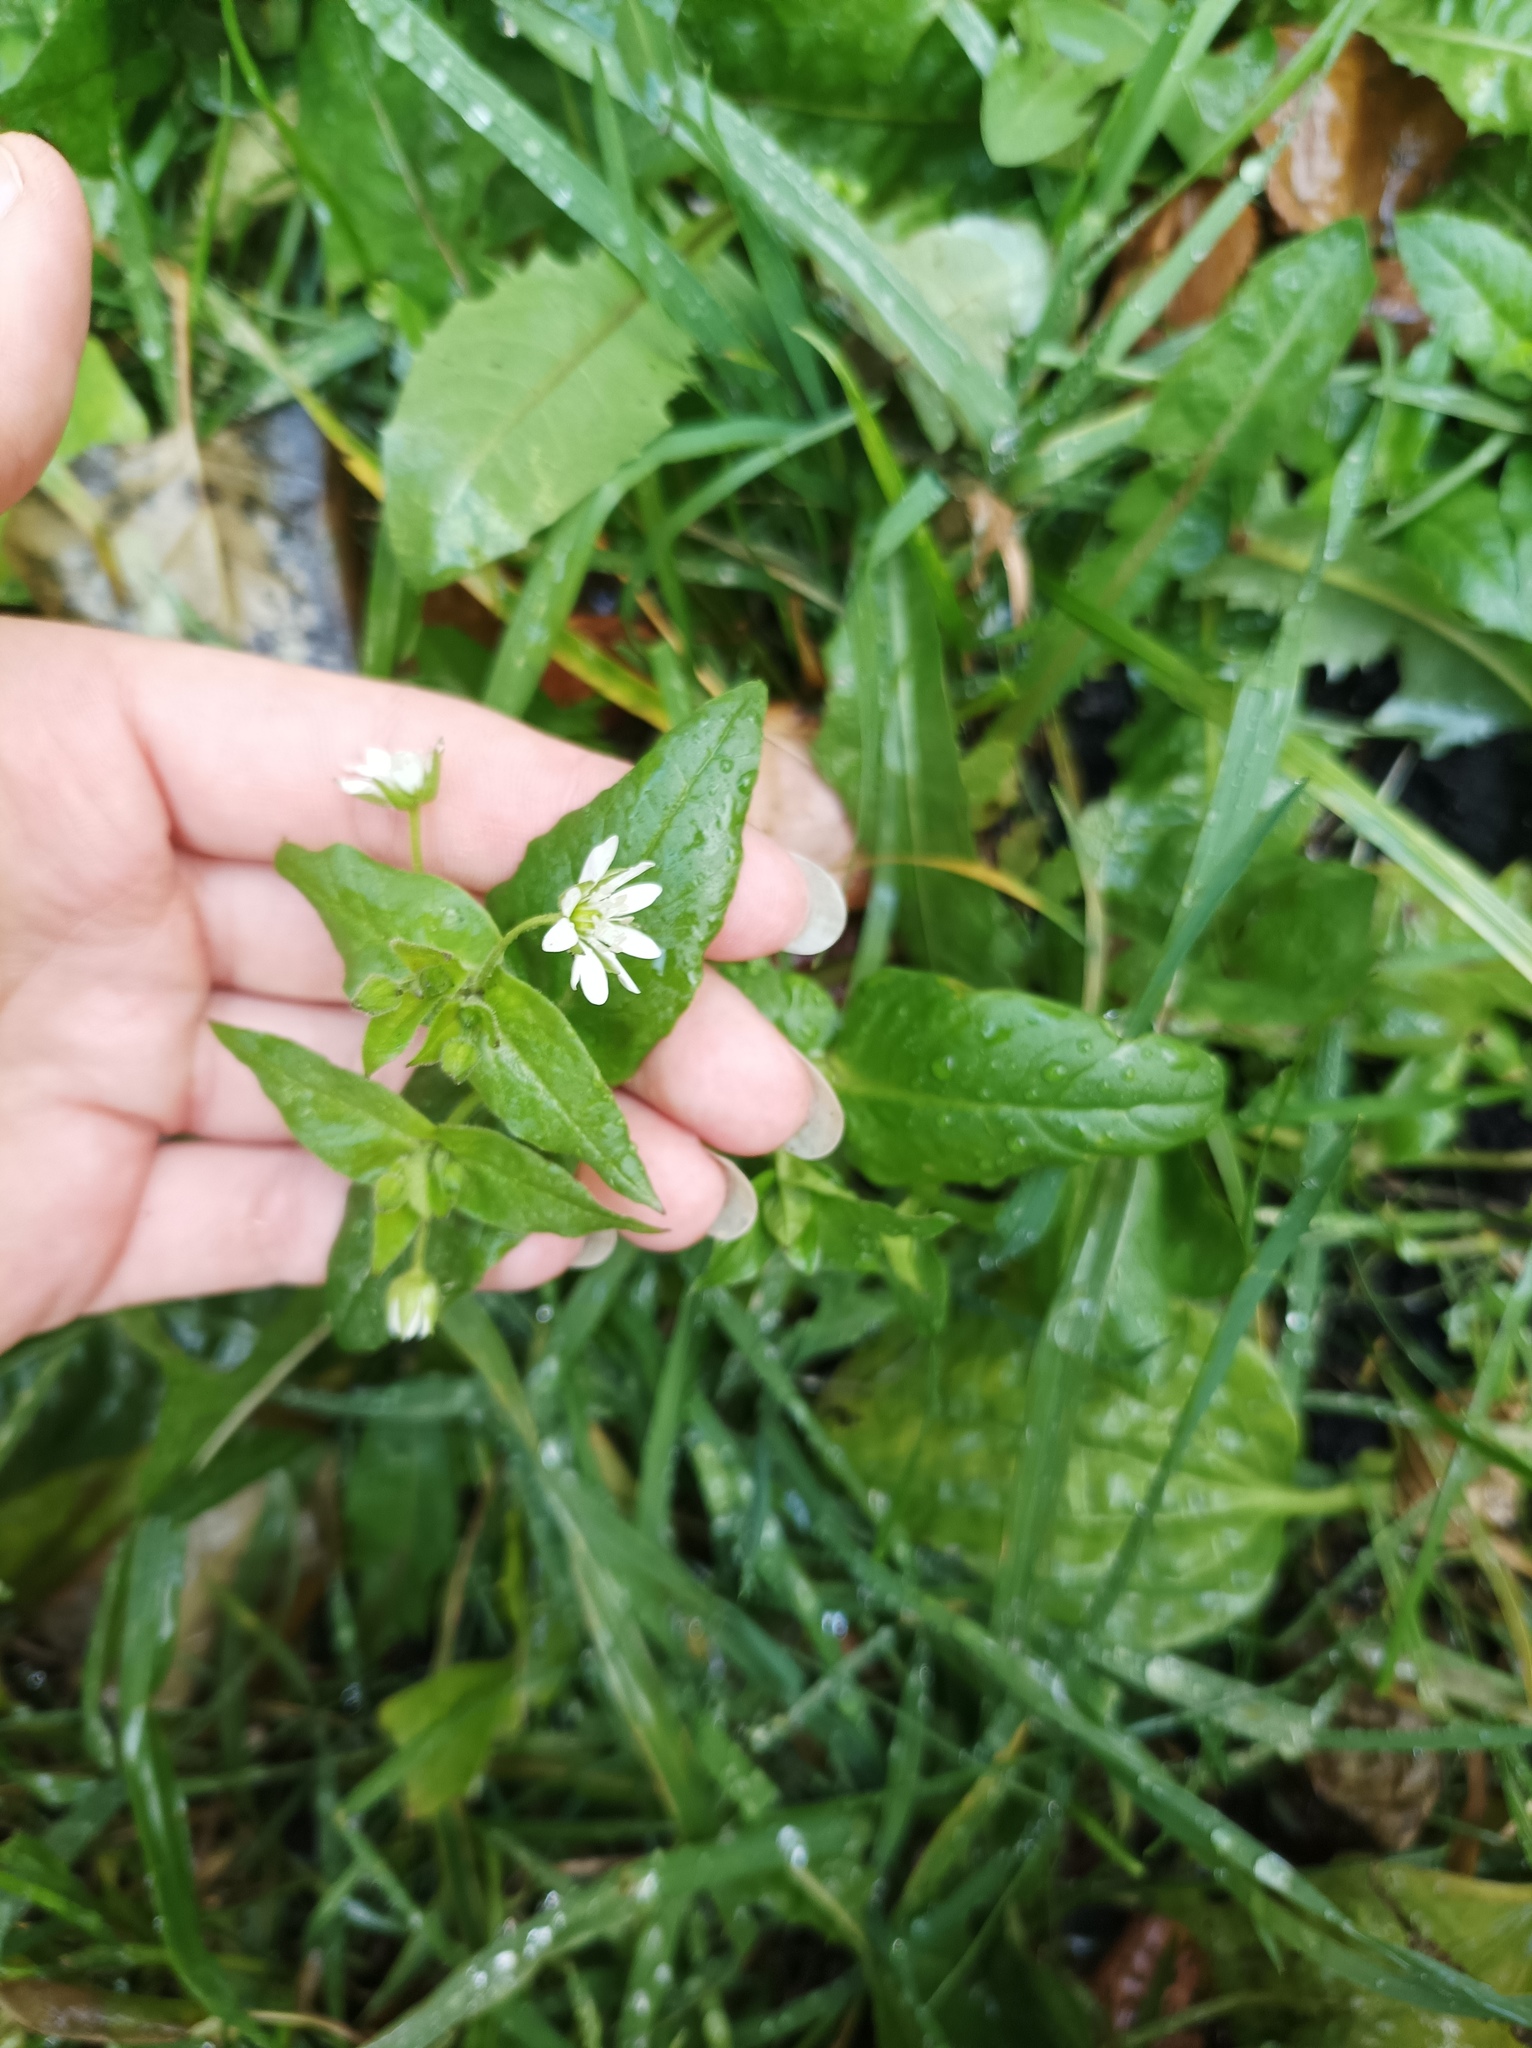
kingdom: Plantae
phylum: Tracheophyta
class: Magnoliopsida
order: Caryophyllales
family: Caryophyllaceae
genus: Stellaria
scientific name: Stellaria aquatica
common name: Water chickweed
